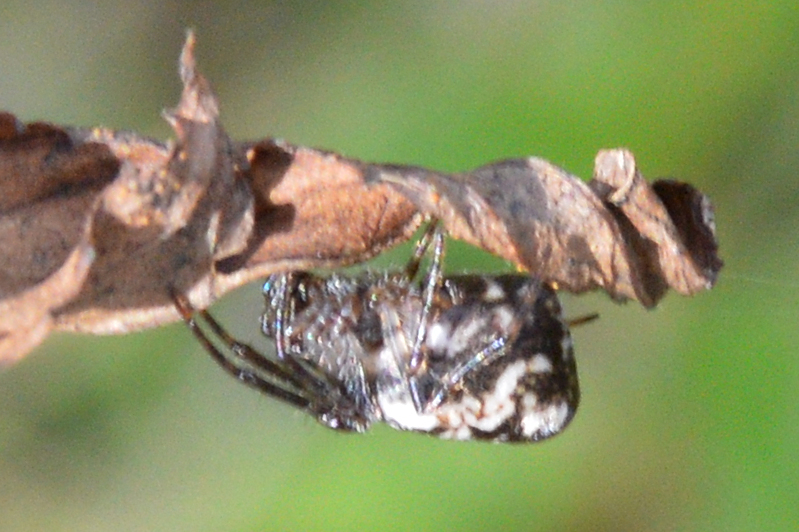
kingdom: Animalia
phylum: Arthropoda
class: Arachnida
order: Araneae
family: Araneidae
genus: Cyclosa
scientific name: Cyclosa conica
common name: Conical trashline orbweaver
